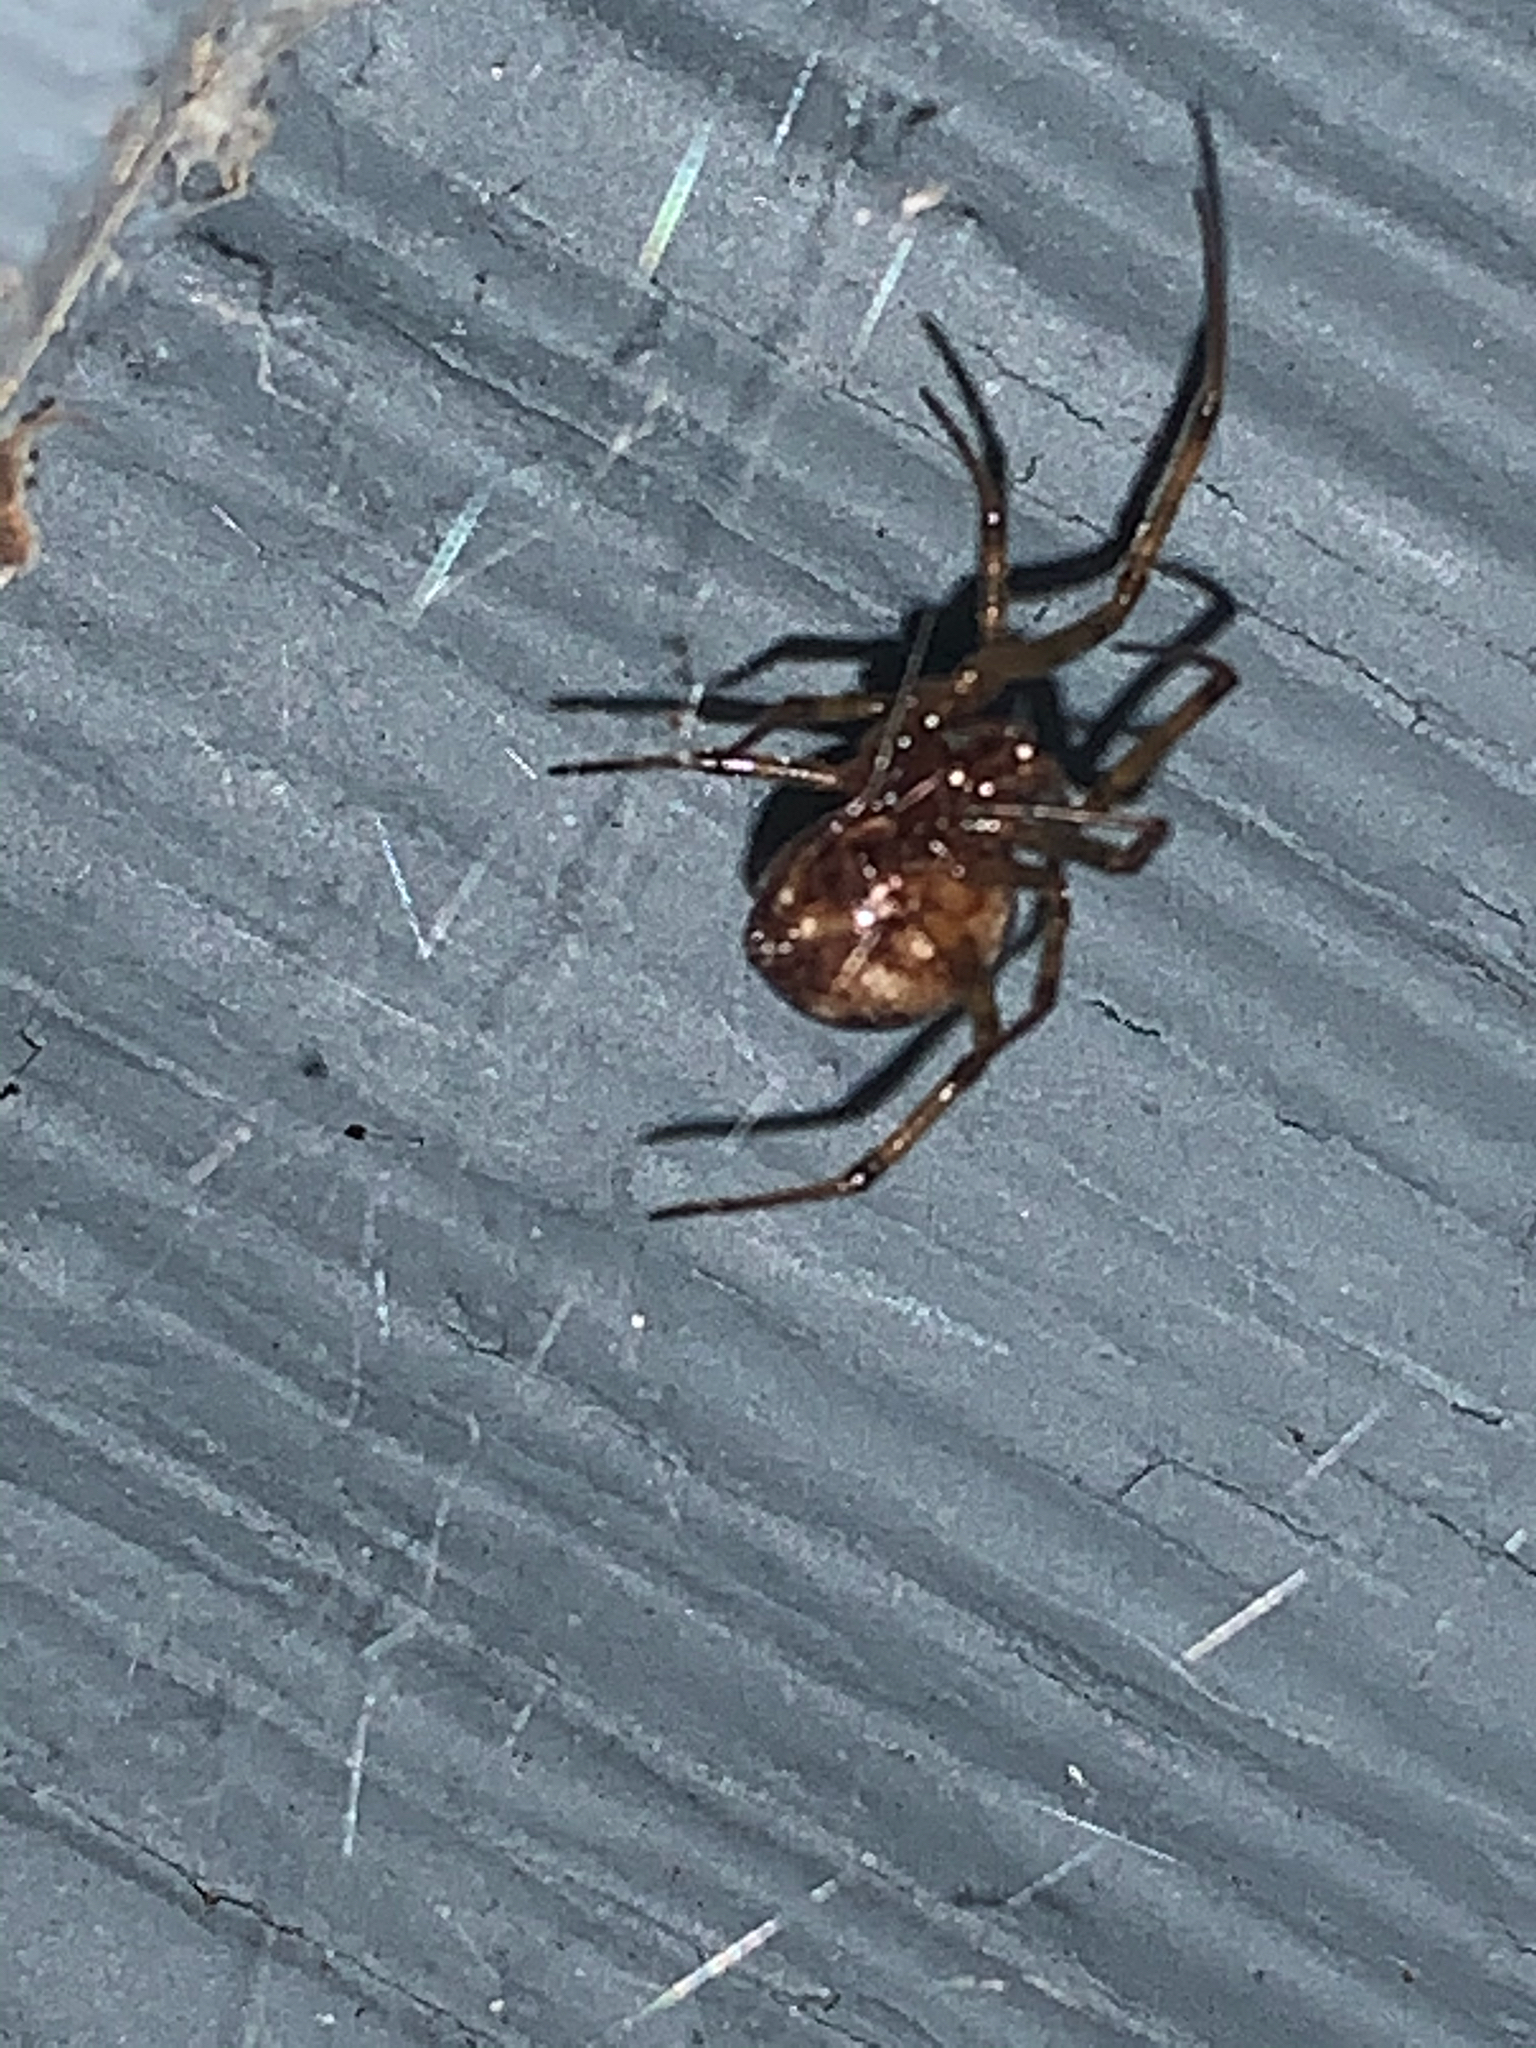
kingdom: Animalia
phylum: Arthropoda
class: Arachnida
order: Araneae
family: Theridiidae
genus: Steatoda
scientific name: Steatoda triangulosa
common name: Triangulate bud spider
